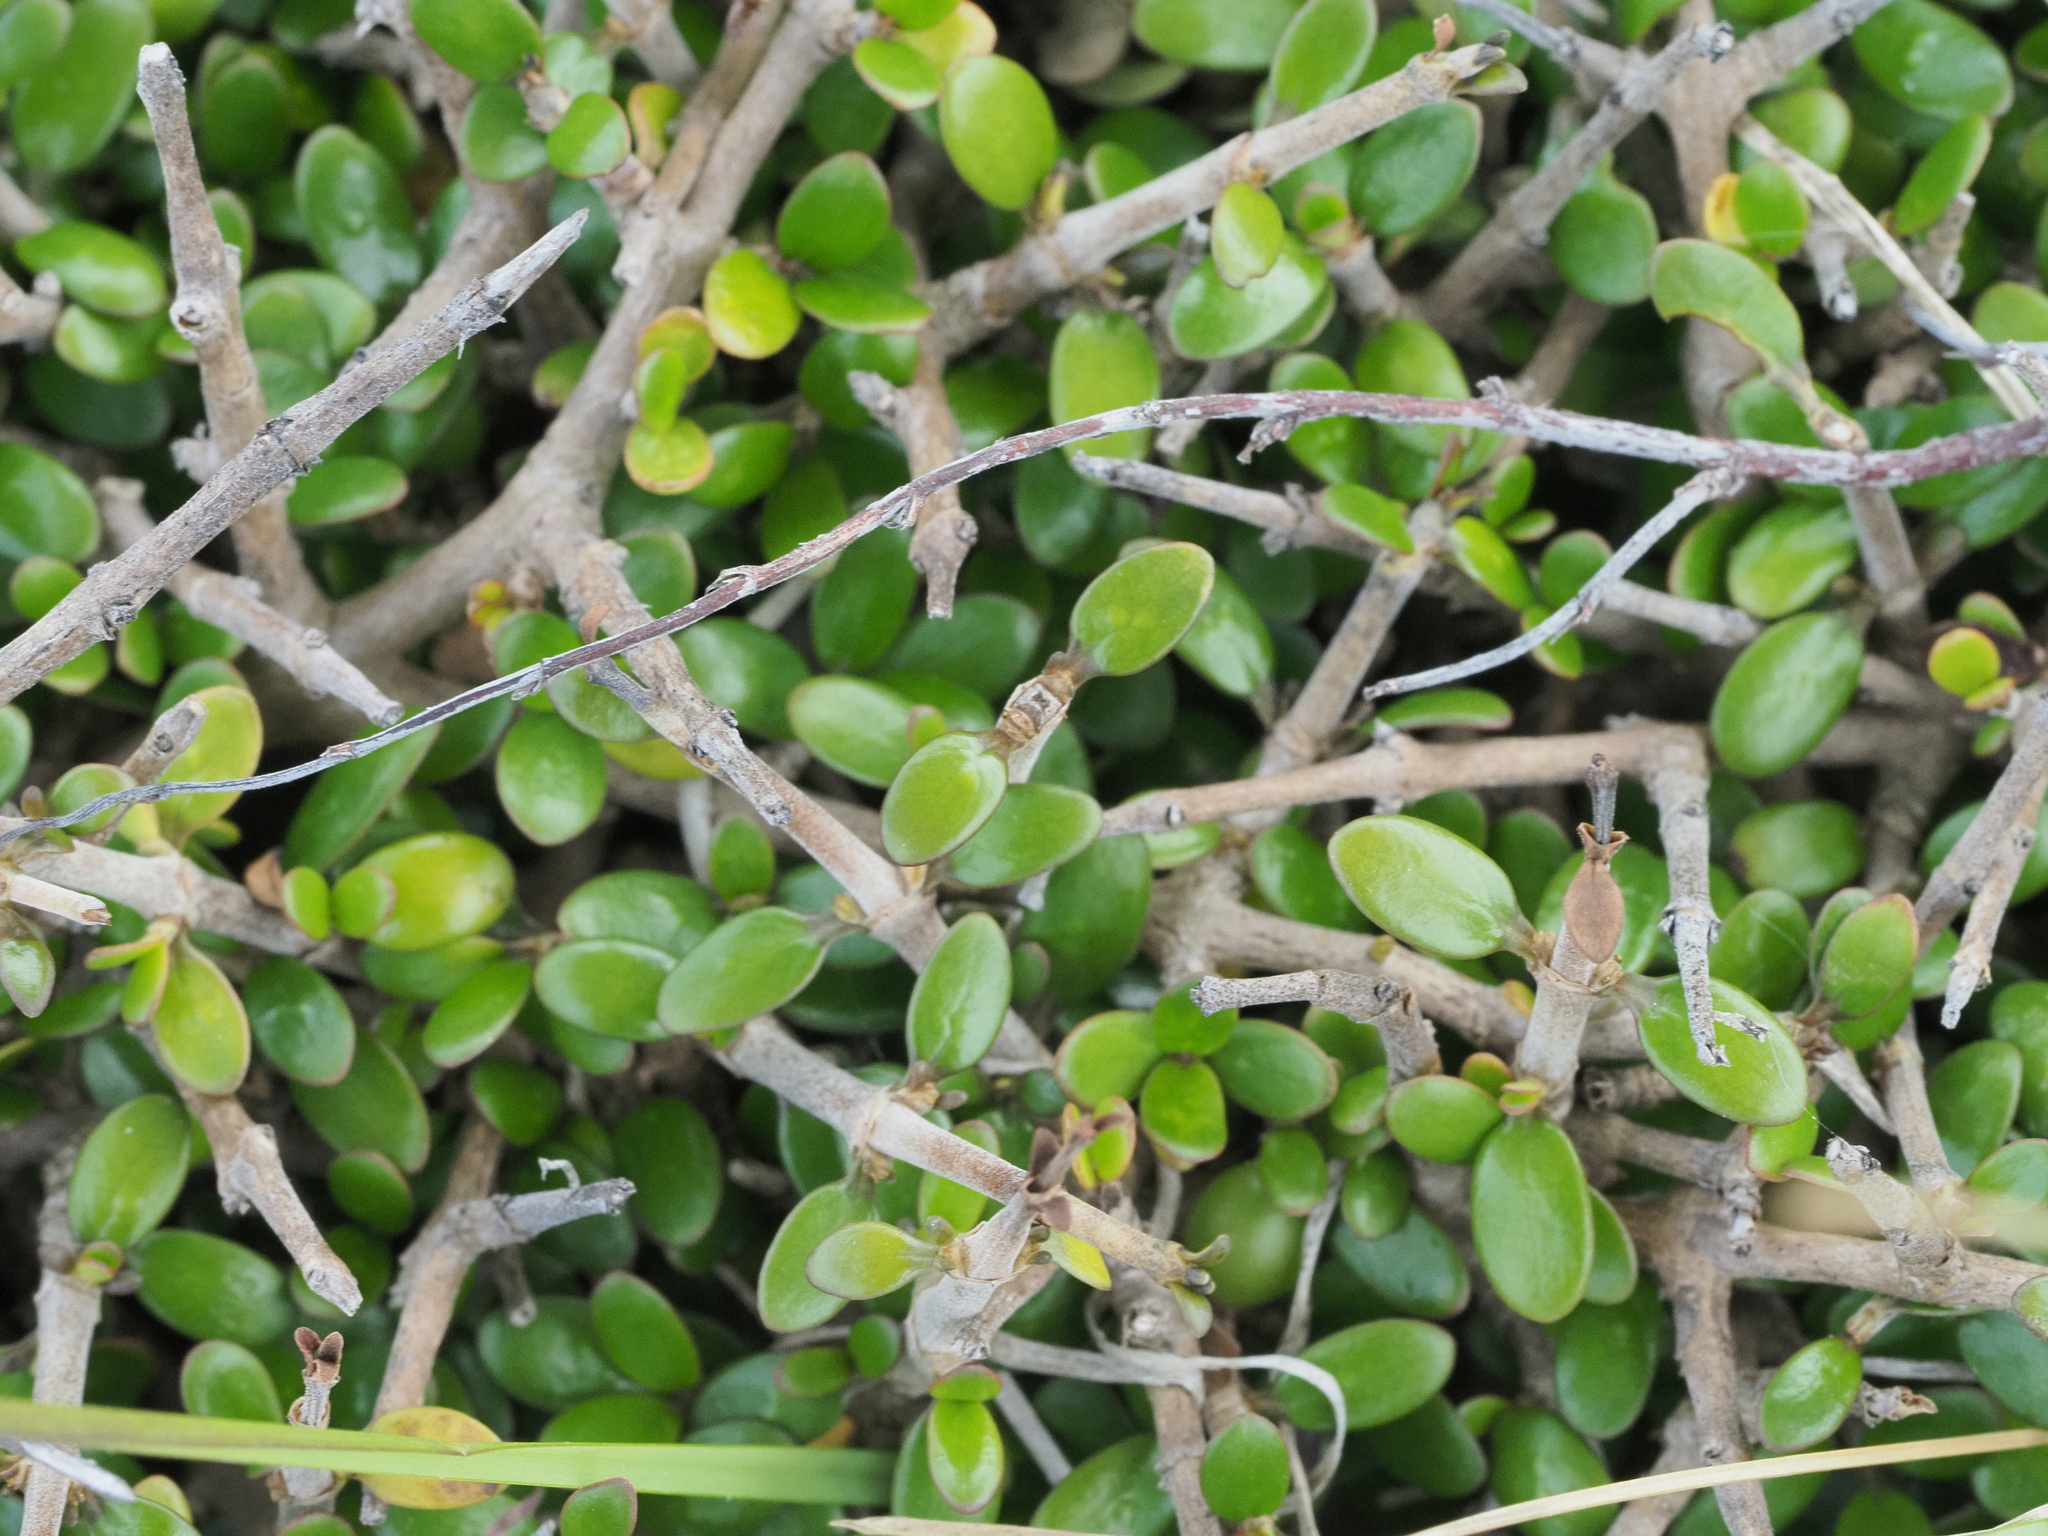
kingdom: Plantae
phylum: Tracheophyta
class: Magnoliopsida
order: Gentianales
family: Rubiaceae
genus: Coprosma
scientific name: Coprosma propinqua
